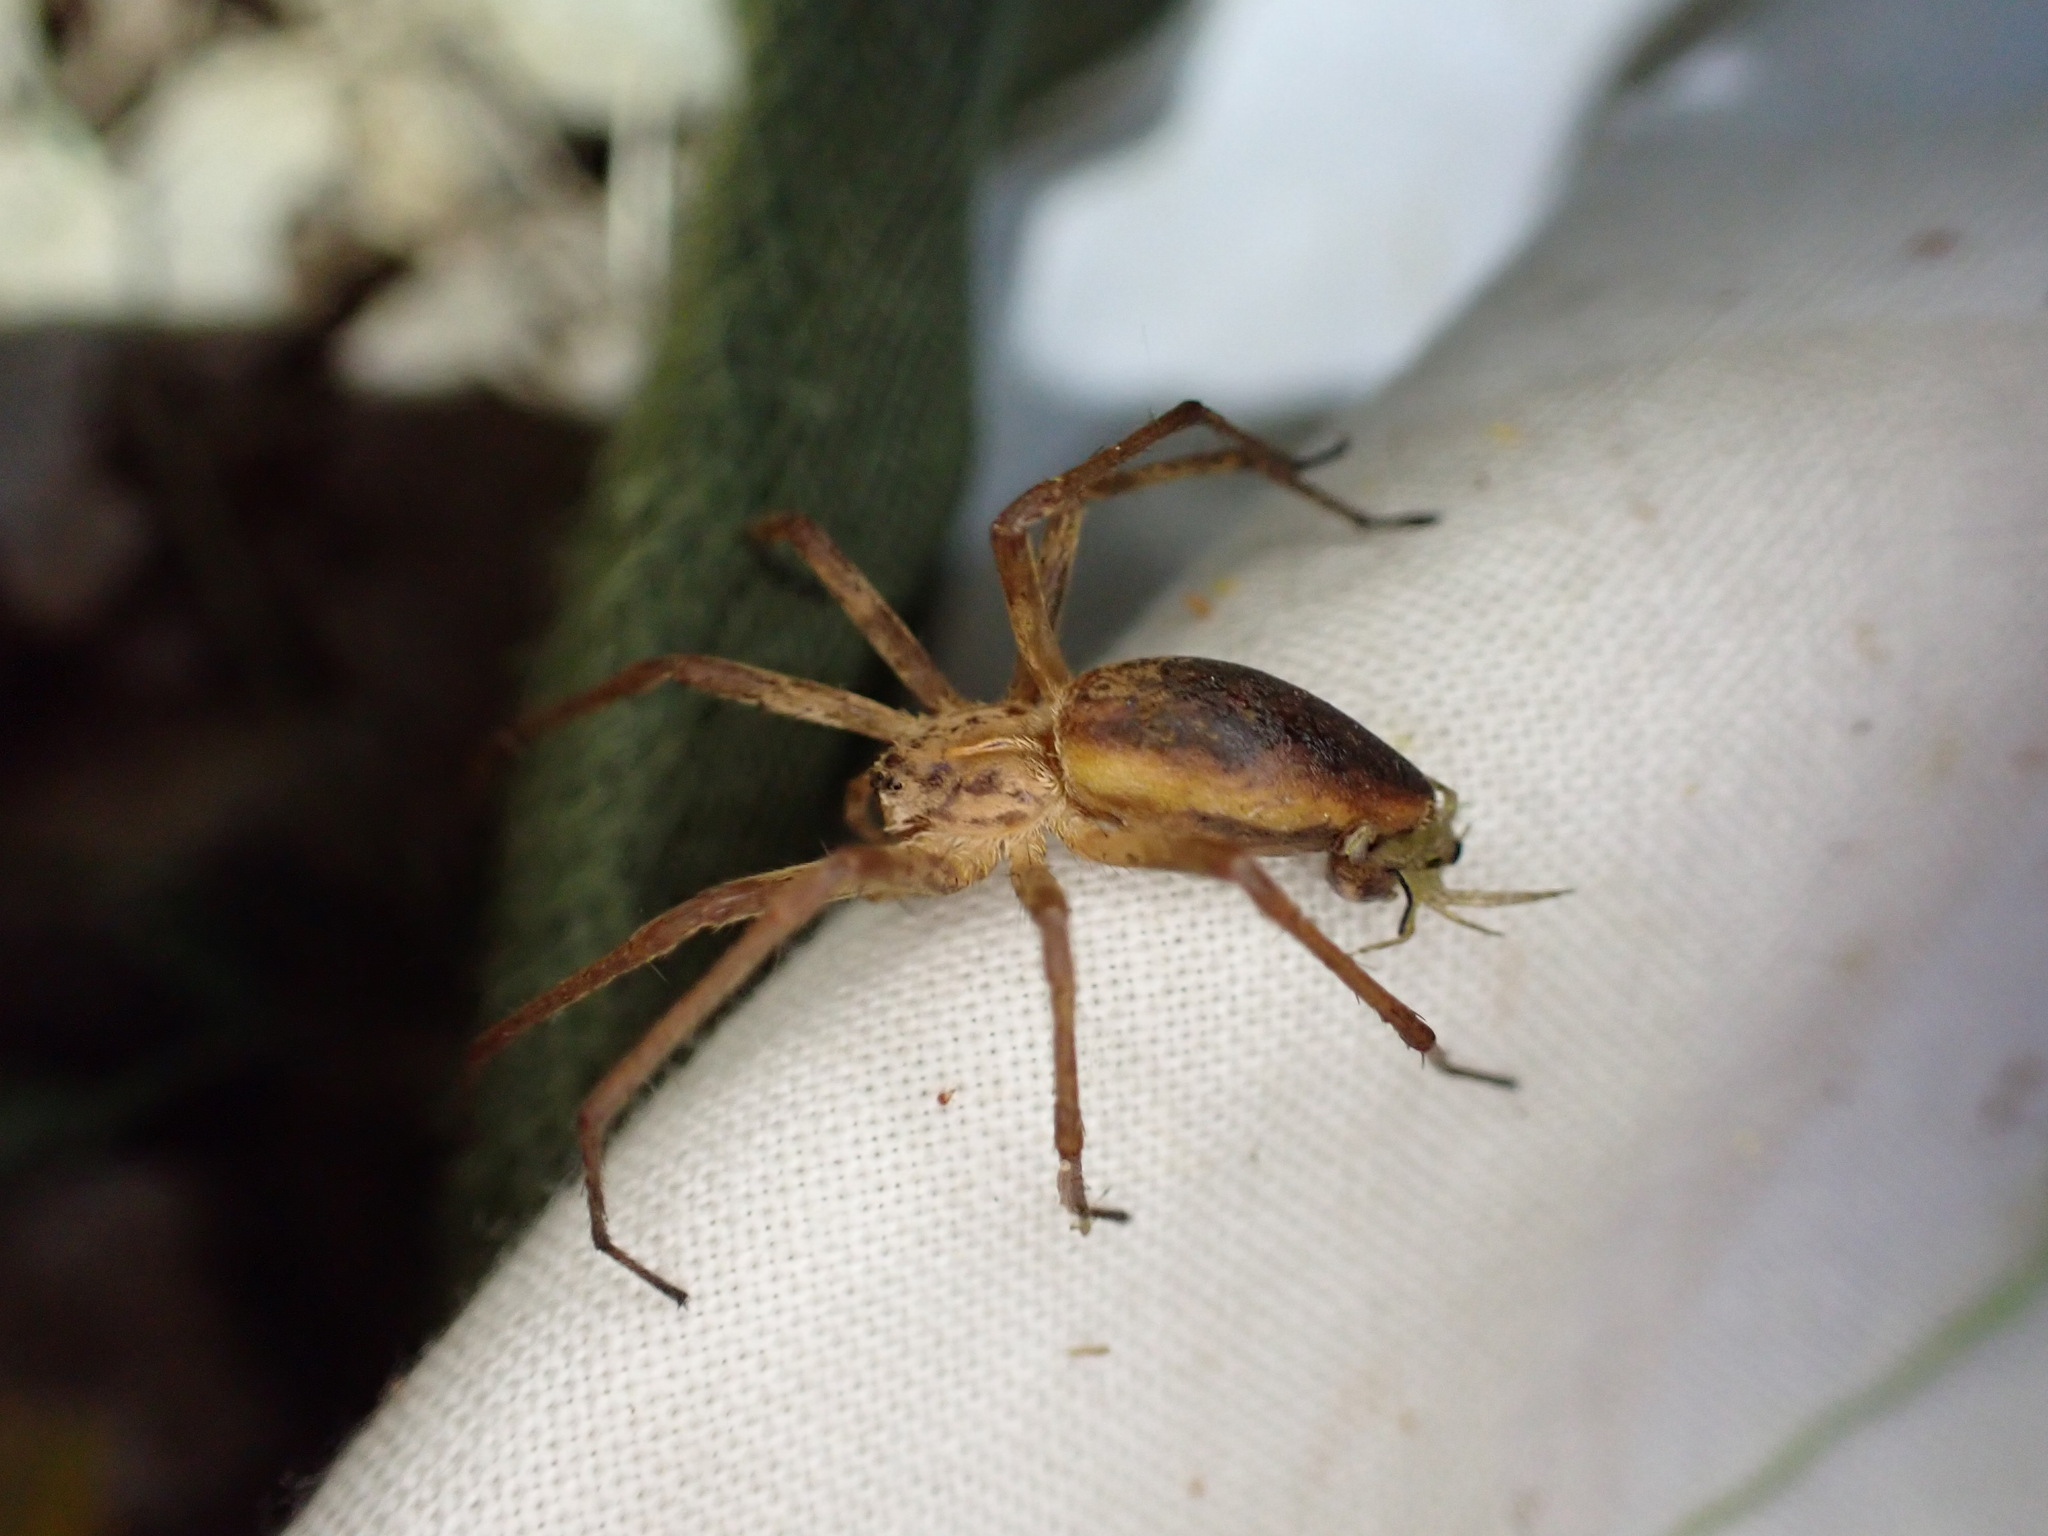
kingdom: Animalia
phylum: Arthropoda
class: Arachnida
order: Araneae
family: Pisauridae
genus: Pisaura
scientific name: Pisaura
